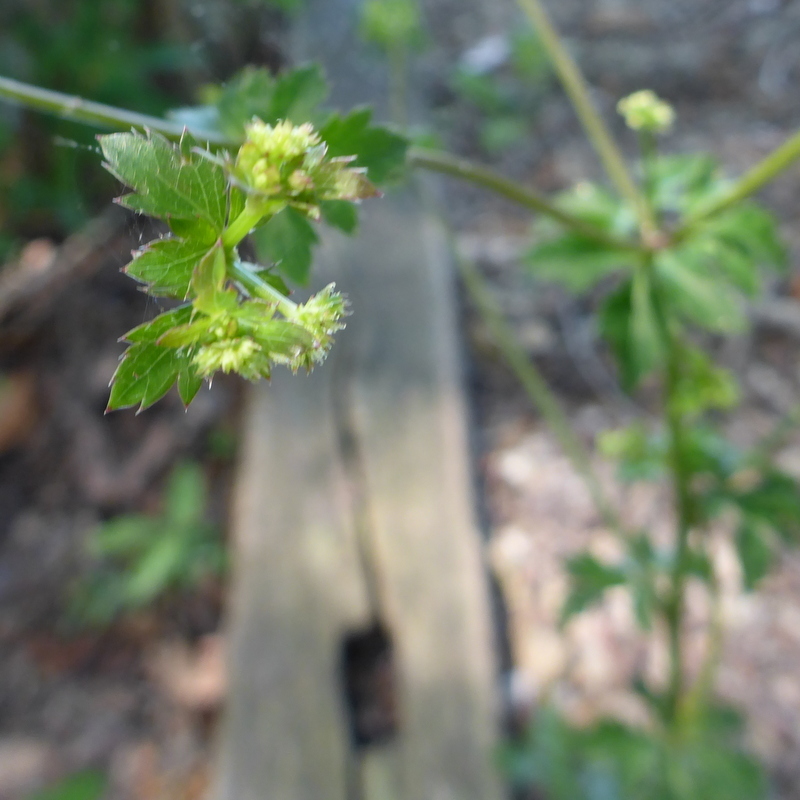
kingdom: Plantae
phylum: Tracheophyta
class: Magnoliopsida
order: Apiales
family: Apiaceae
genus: Sanicula
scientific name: Sanicula canadensis
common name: Canada sanicle
